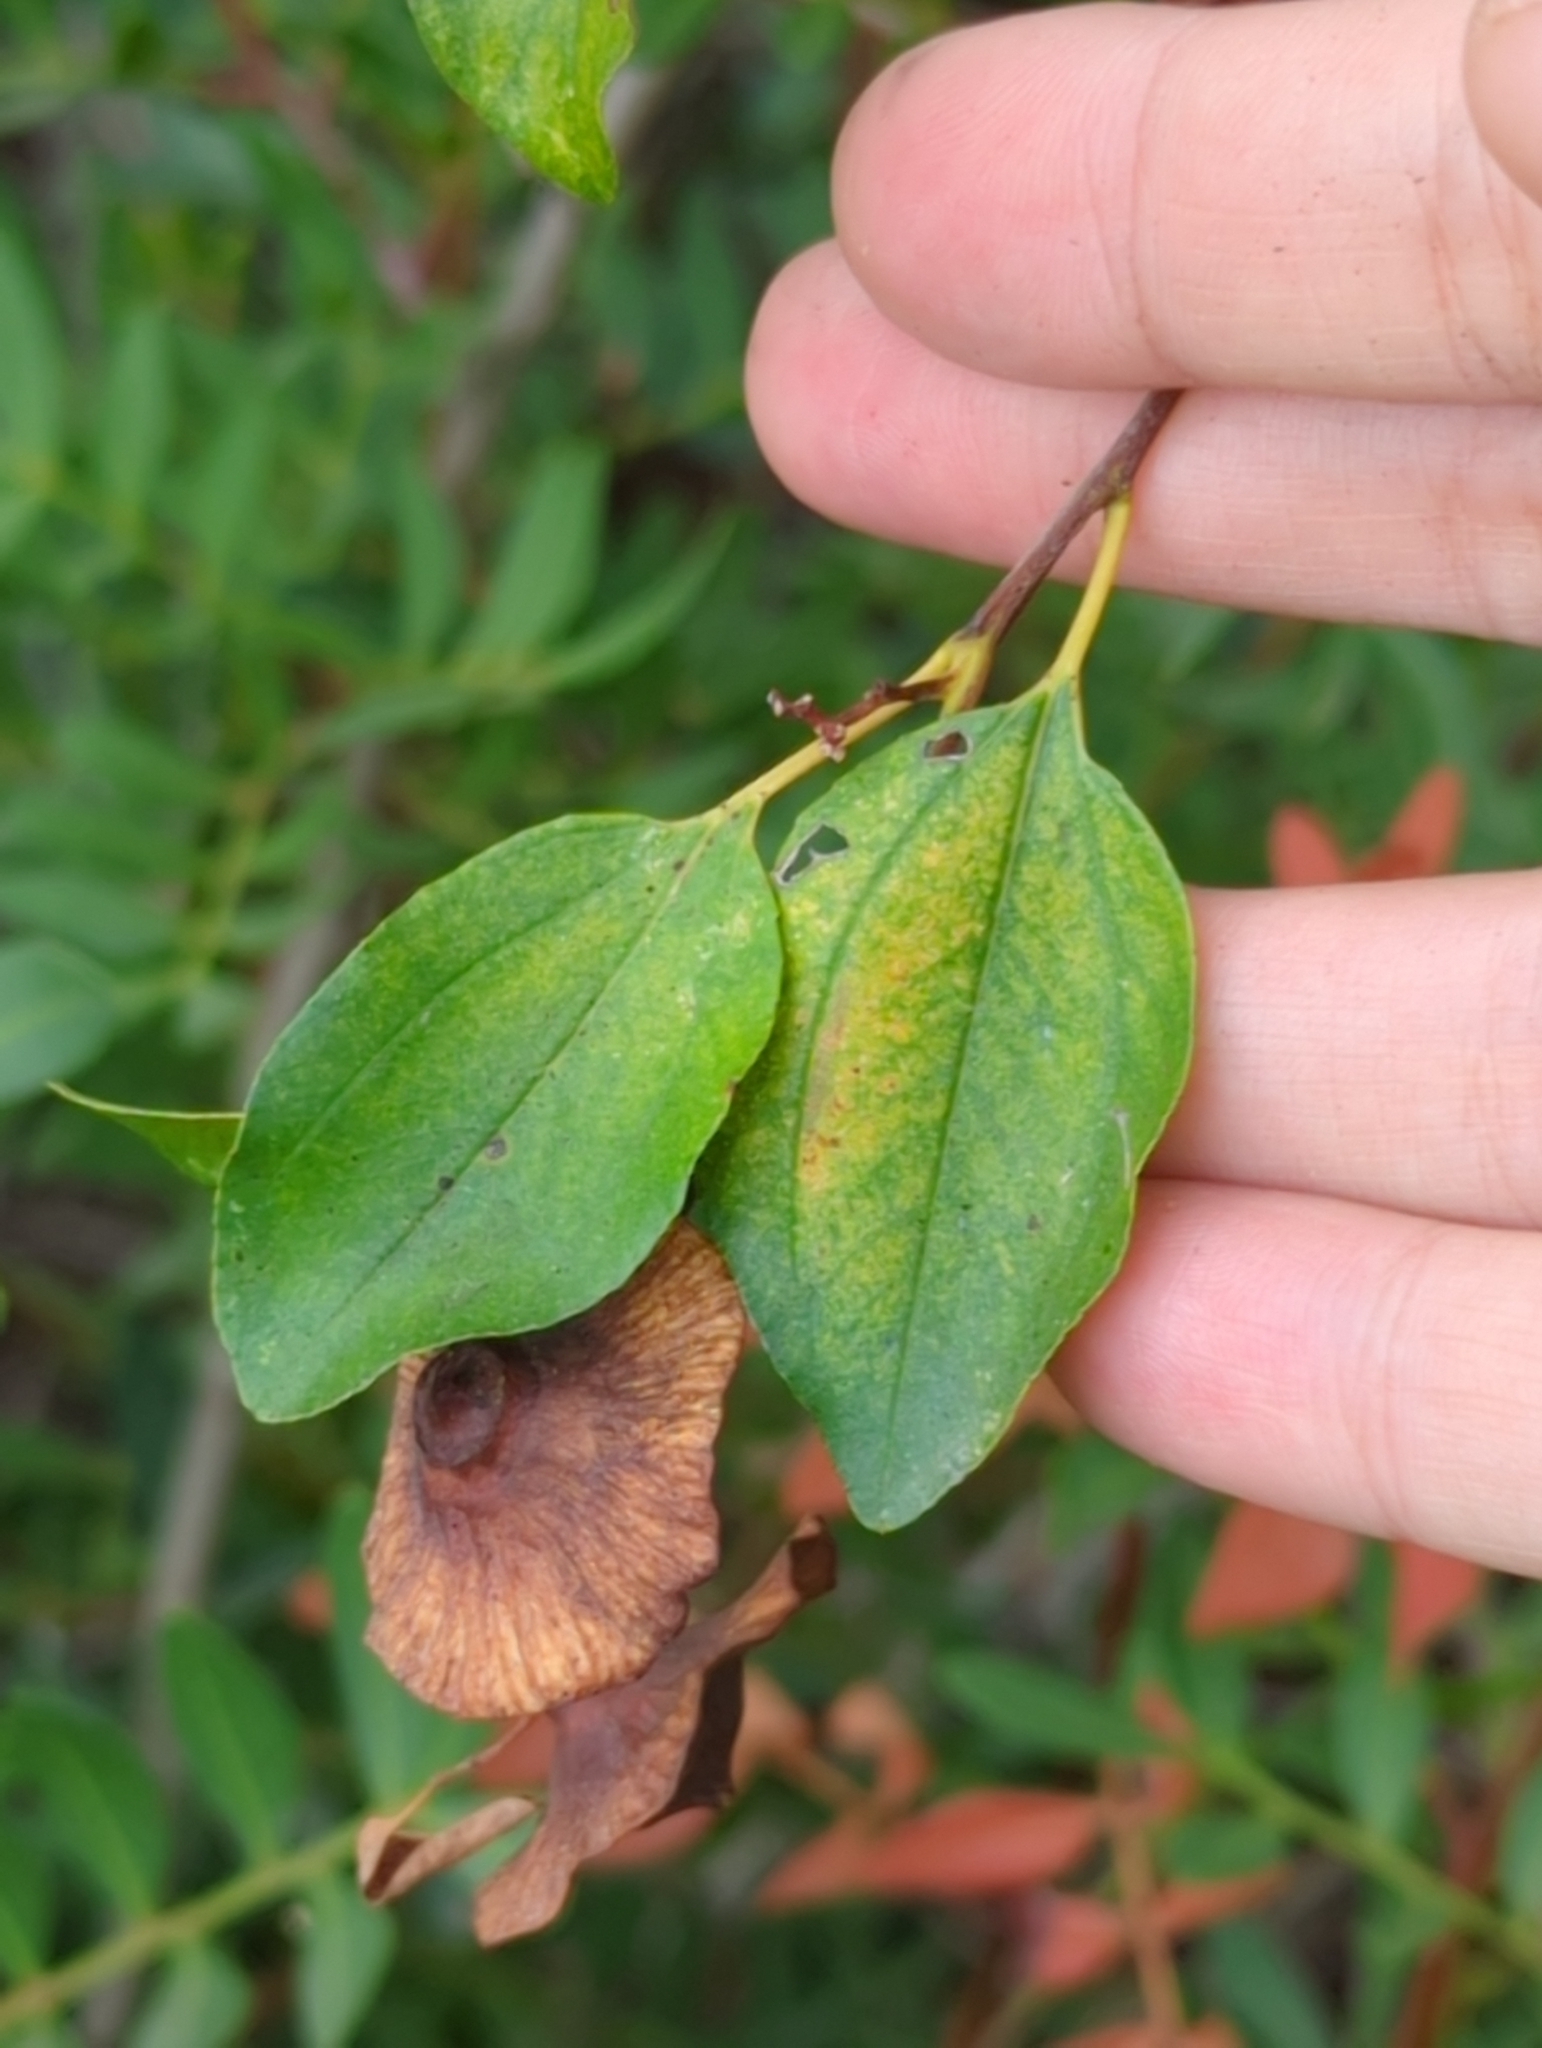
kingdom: Plantae
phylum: Tracheophyta
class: Magnoliopsida
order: Rosales
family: Rhamnaceae
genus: Paliurus
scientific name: Paliurus spina-christi
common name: Jeruselem thorn
